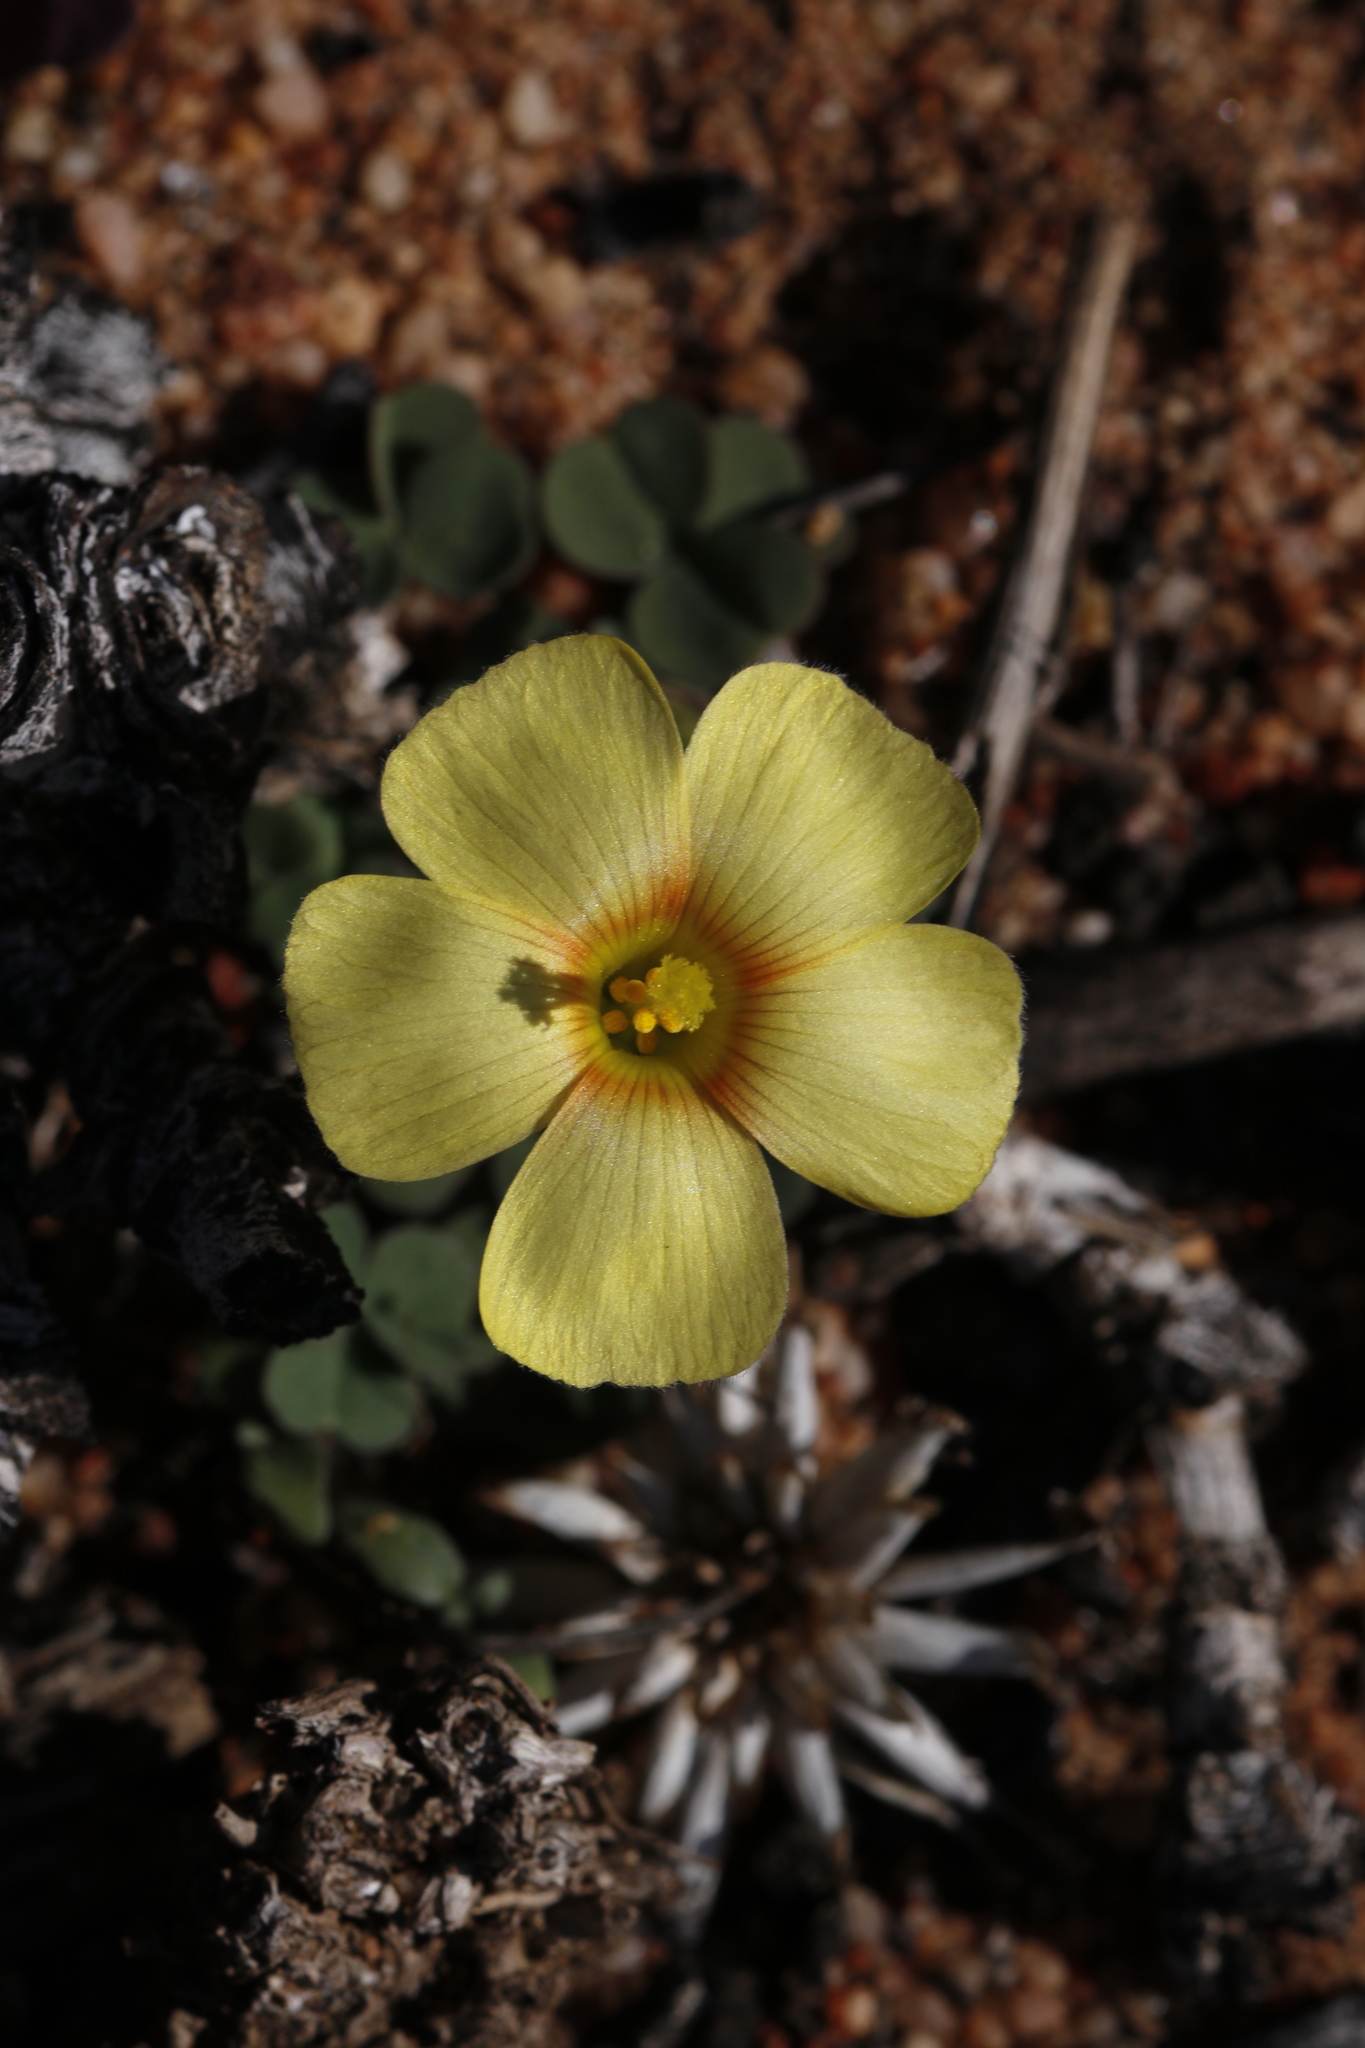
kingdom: Plantae
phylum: Tracheophyta
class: Magnoliopsida
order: Oxalidales
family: Oxalidaceae
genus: Oxalis
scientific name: Oxalis obtusa
